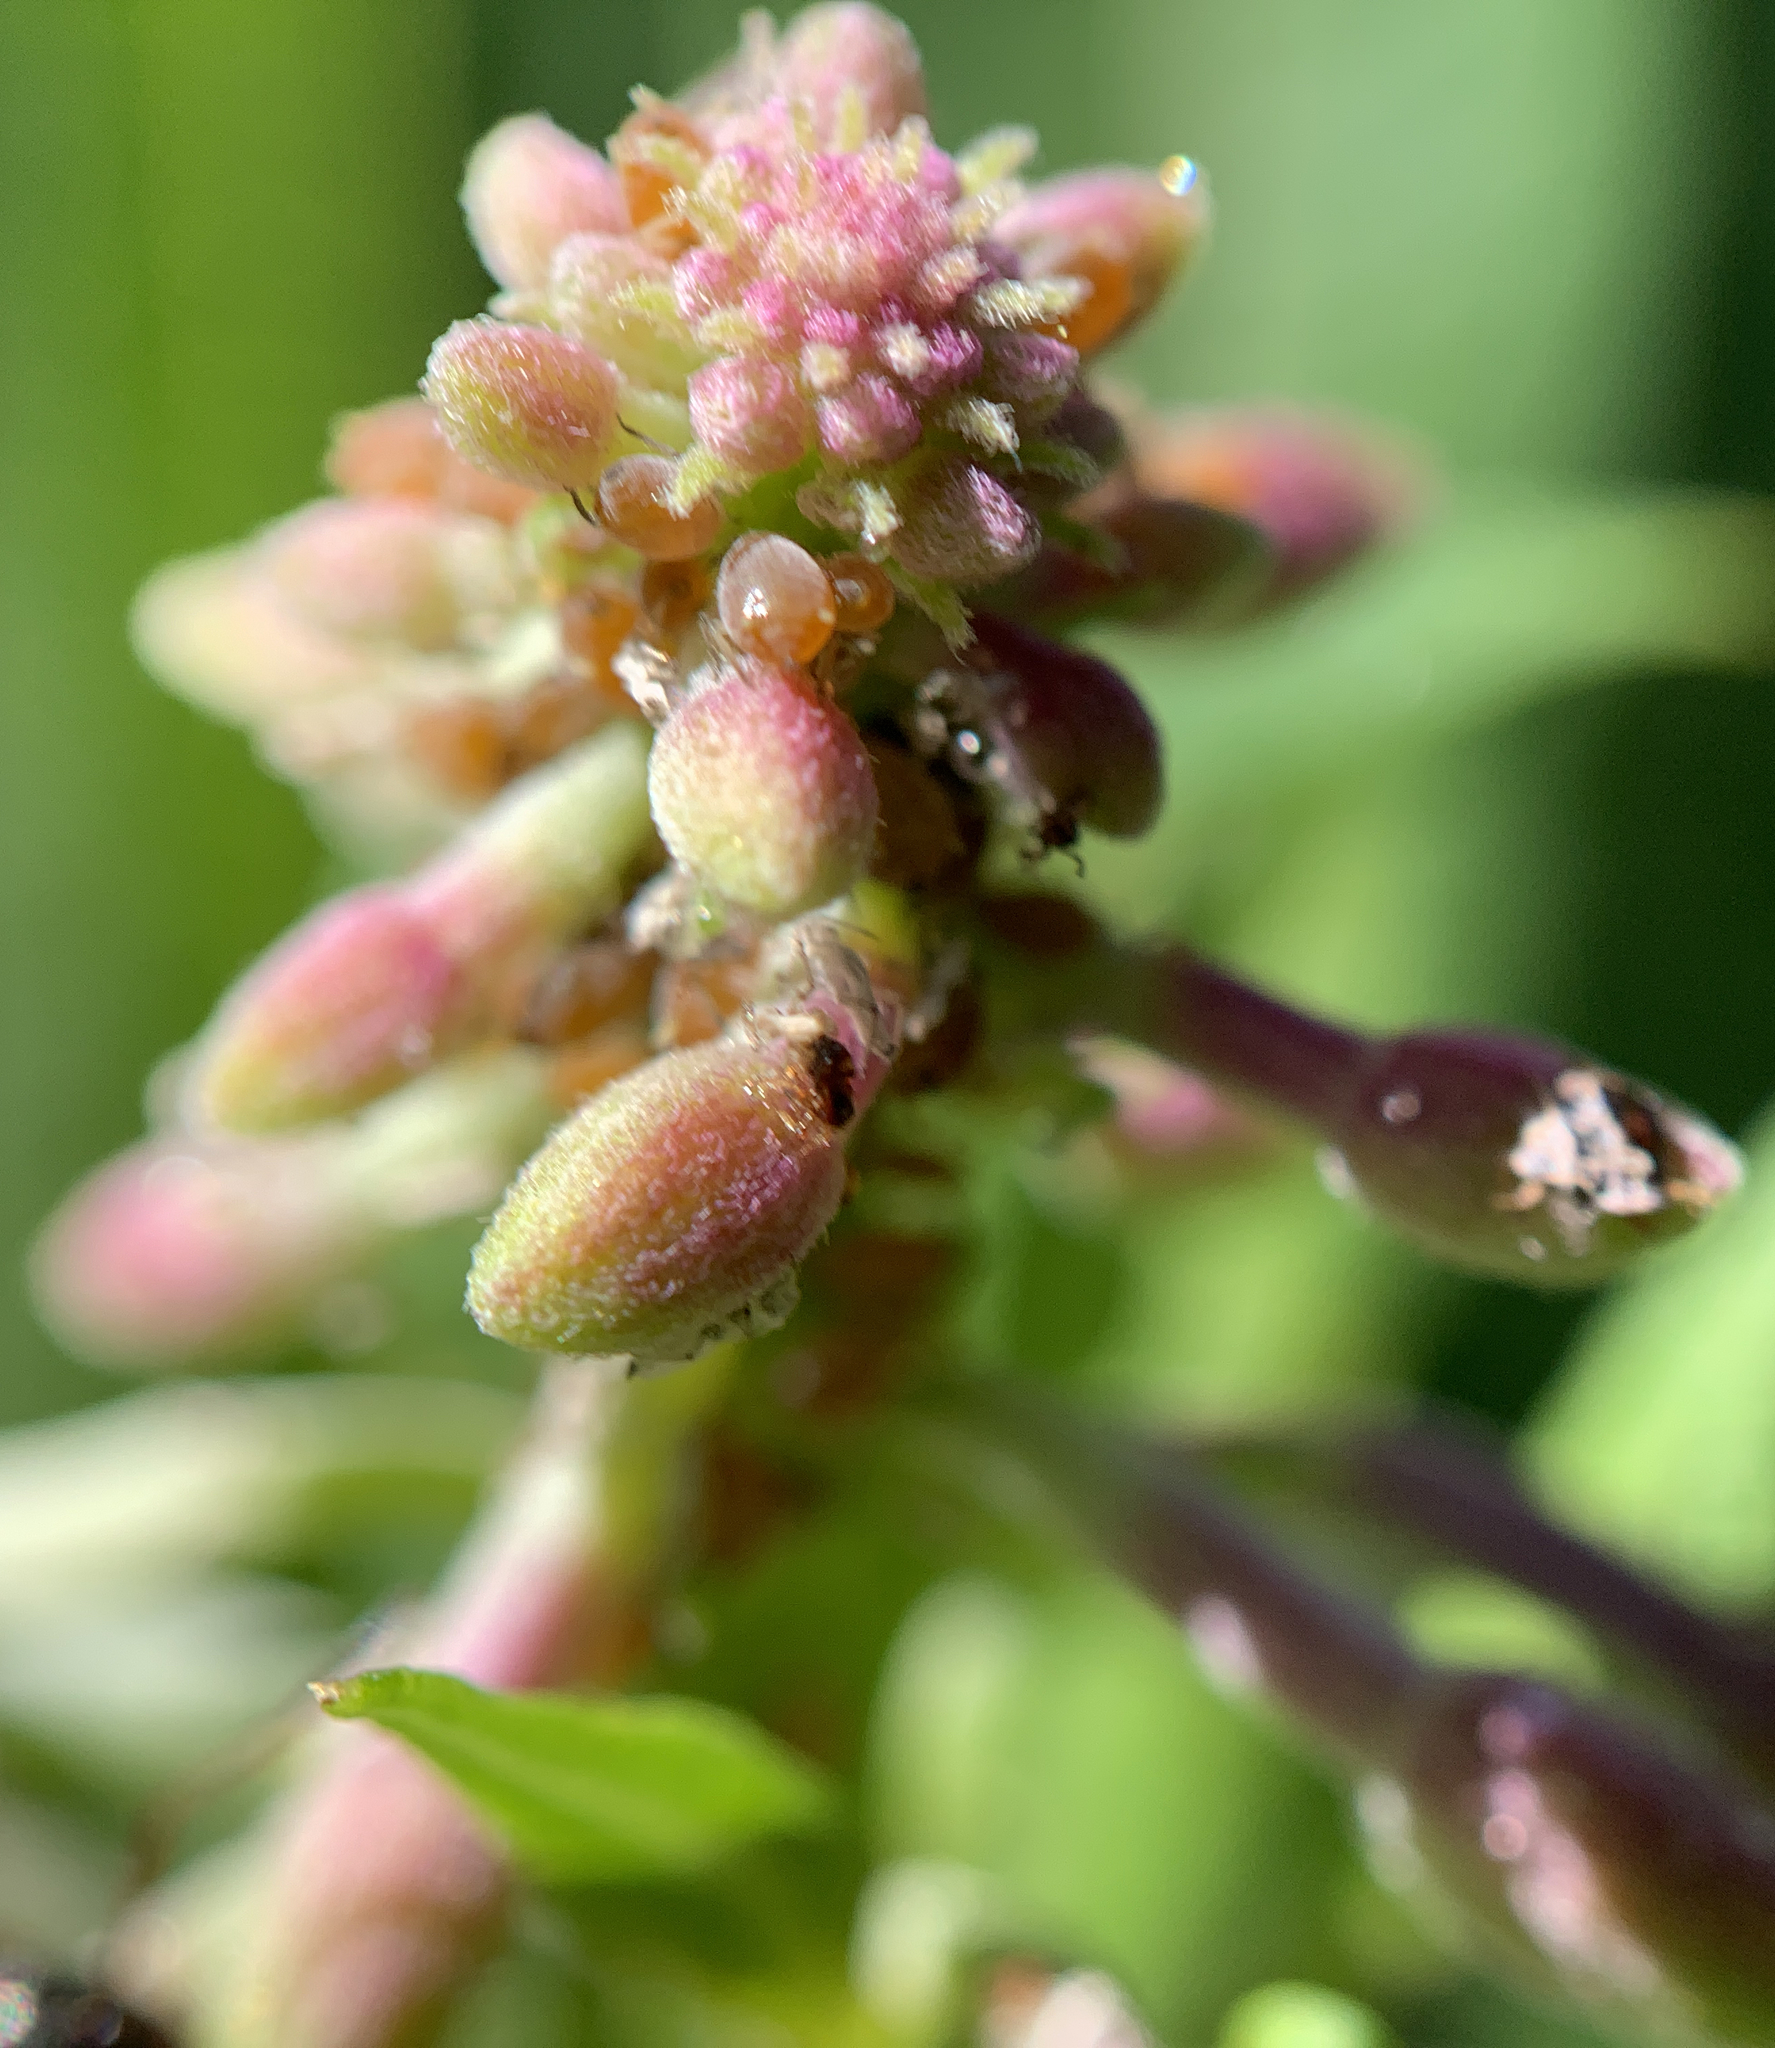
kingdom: Plantae
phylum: Tracheophyta
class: Magnoliopsida
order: Myrtales
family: Onagraceae
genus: Chamaenerion
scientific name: Chamaenerion angustifolium
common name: Fireweed
